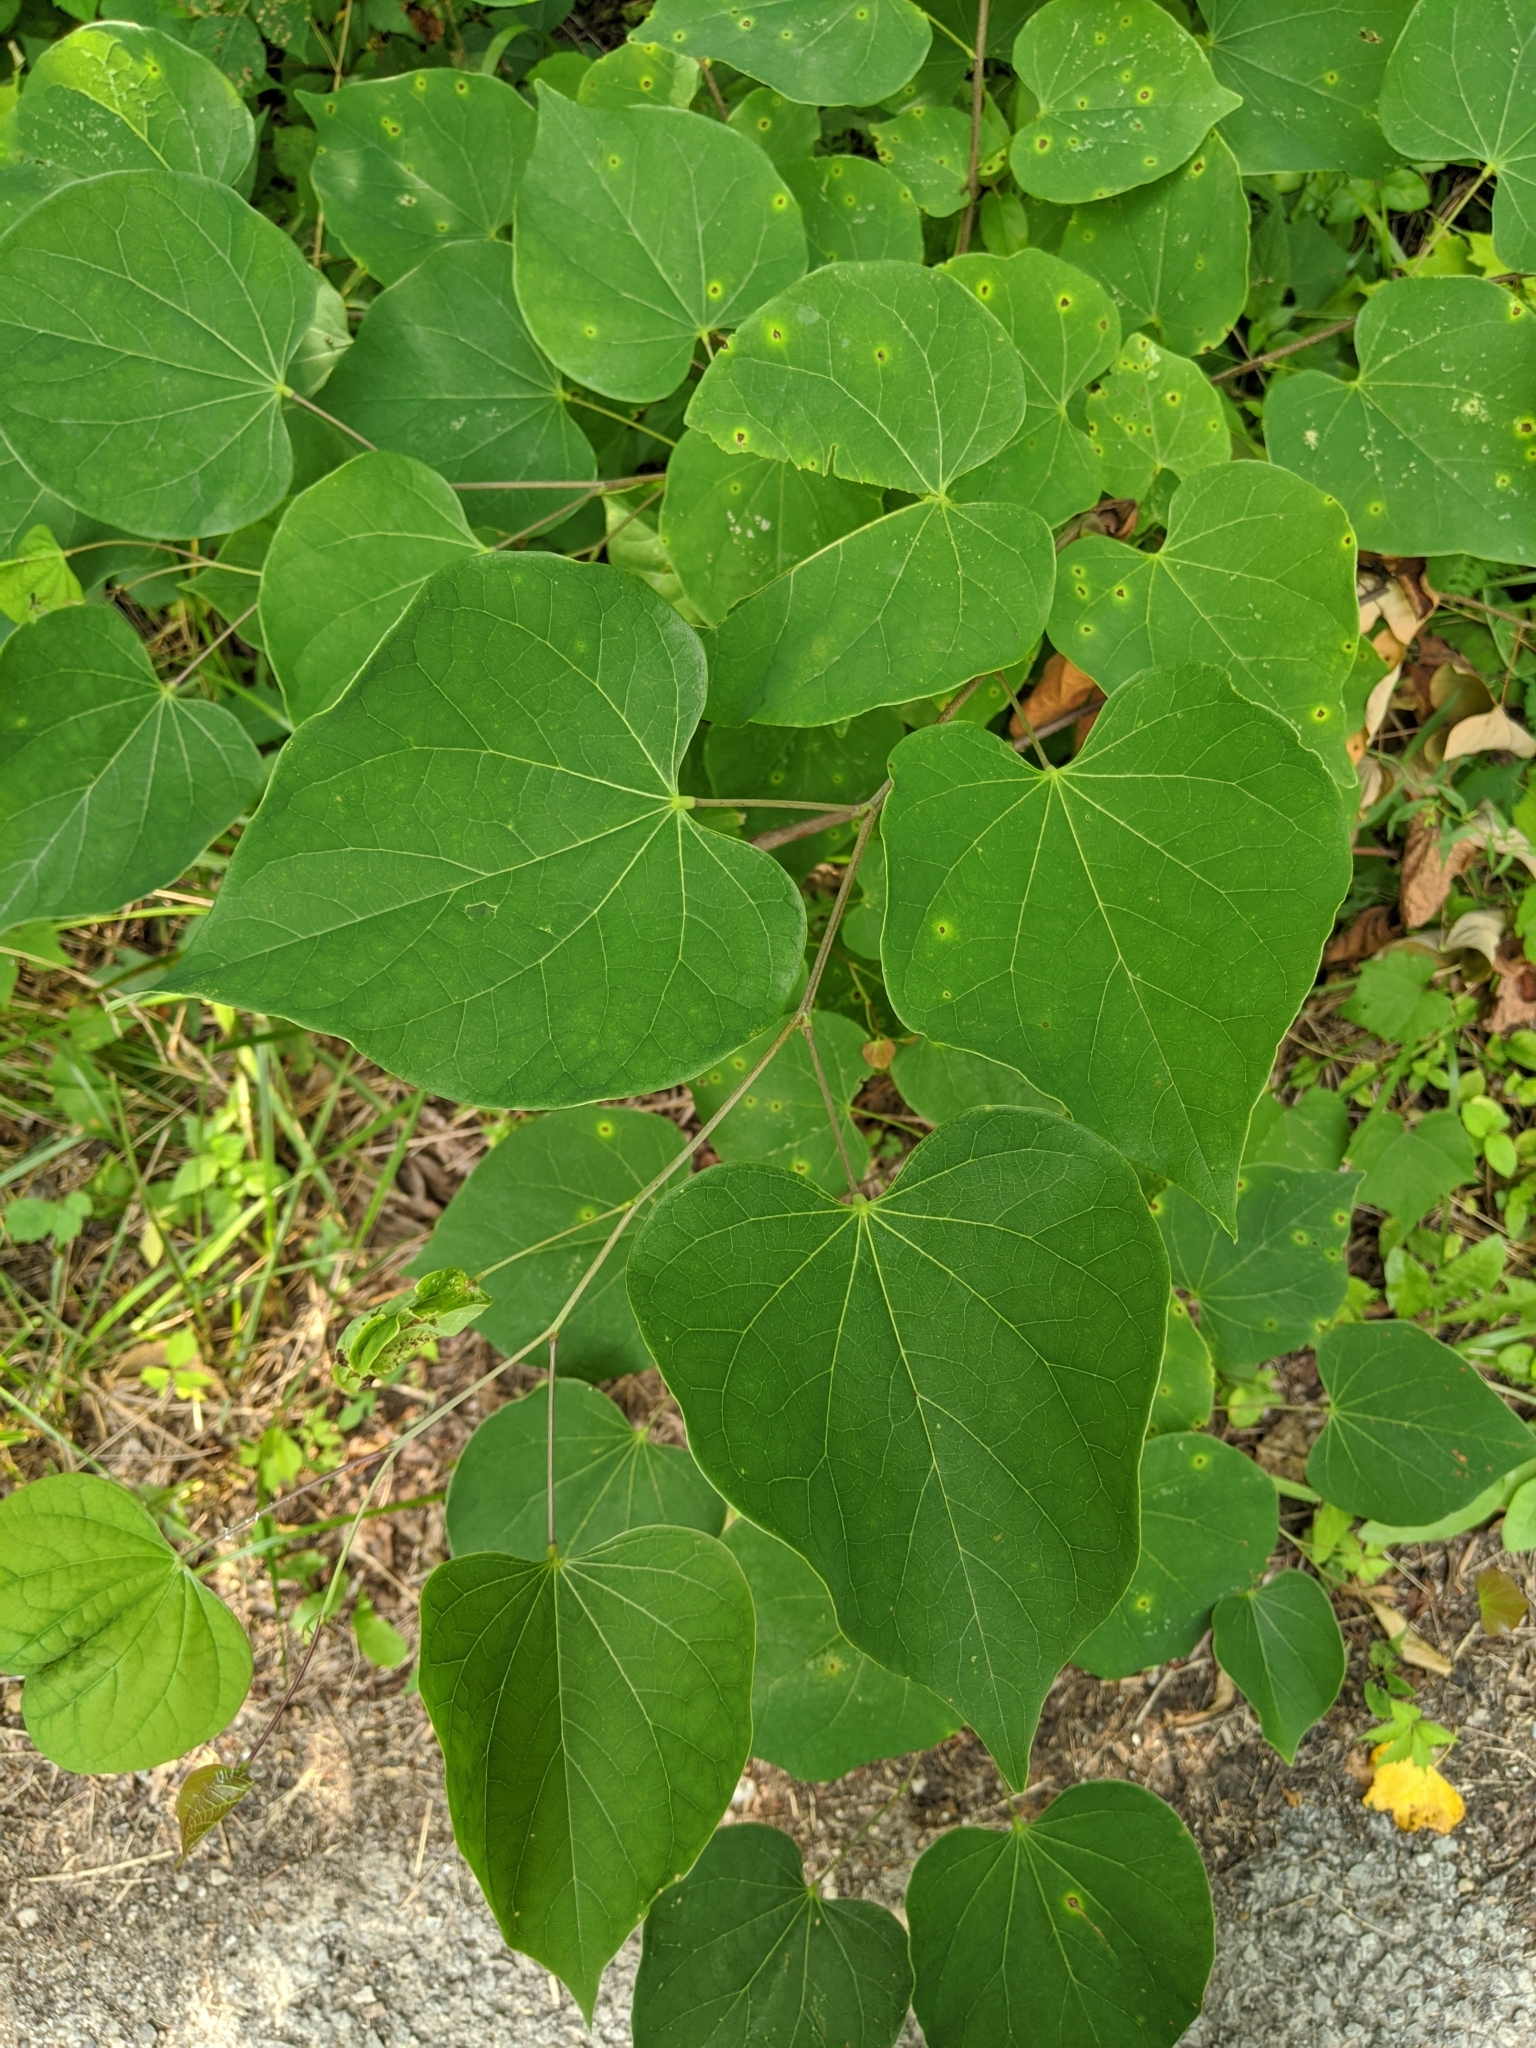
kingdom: Plantae
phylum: Tracheophyta
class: Magnoliopsida
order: Fabales
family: Fabaceae
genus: Cercis
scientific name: Cercis canadensis
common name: Eastern redbud
